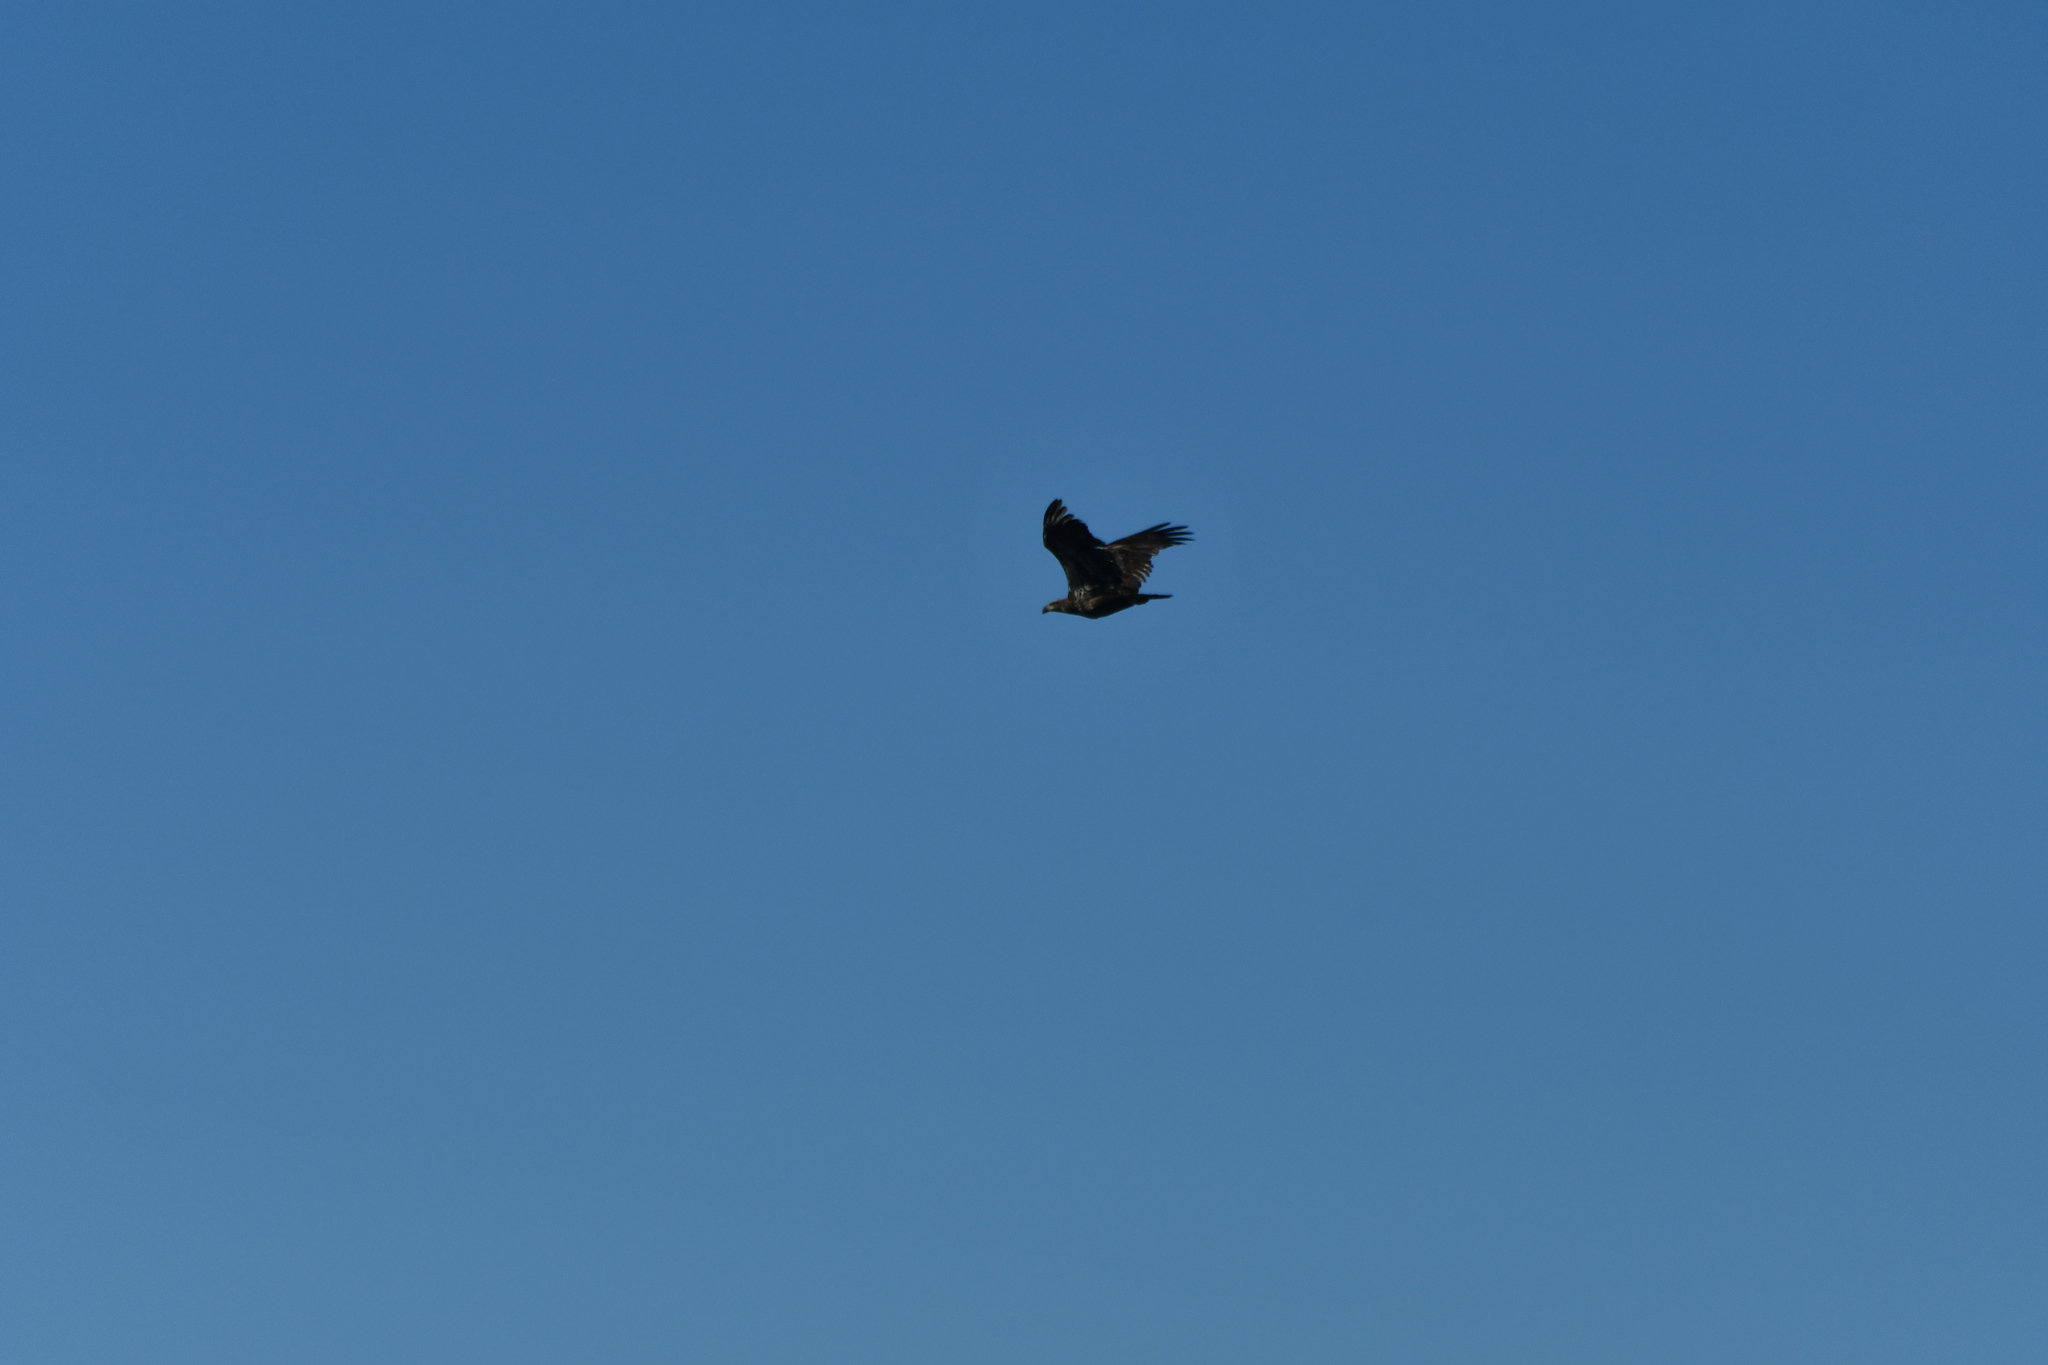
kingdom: Animalia
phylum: Chordata
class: Aves
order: Accipitriformes
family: Accipitridae
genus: Haliaeetus
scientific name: Haliaeetus leucocephalus
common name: Bald eagle
